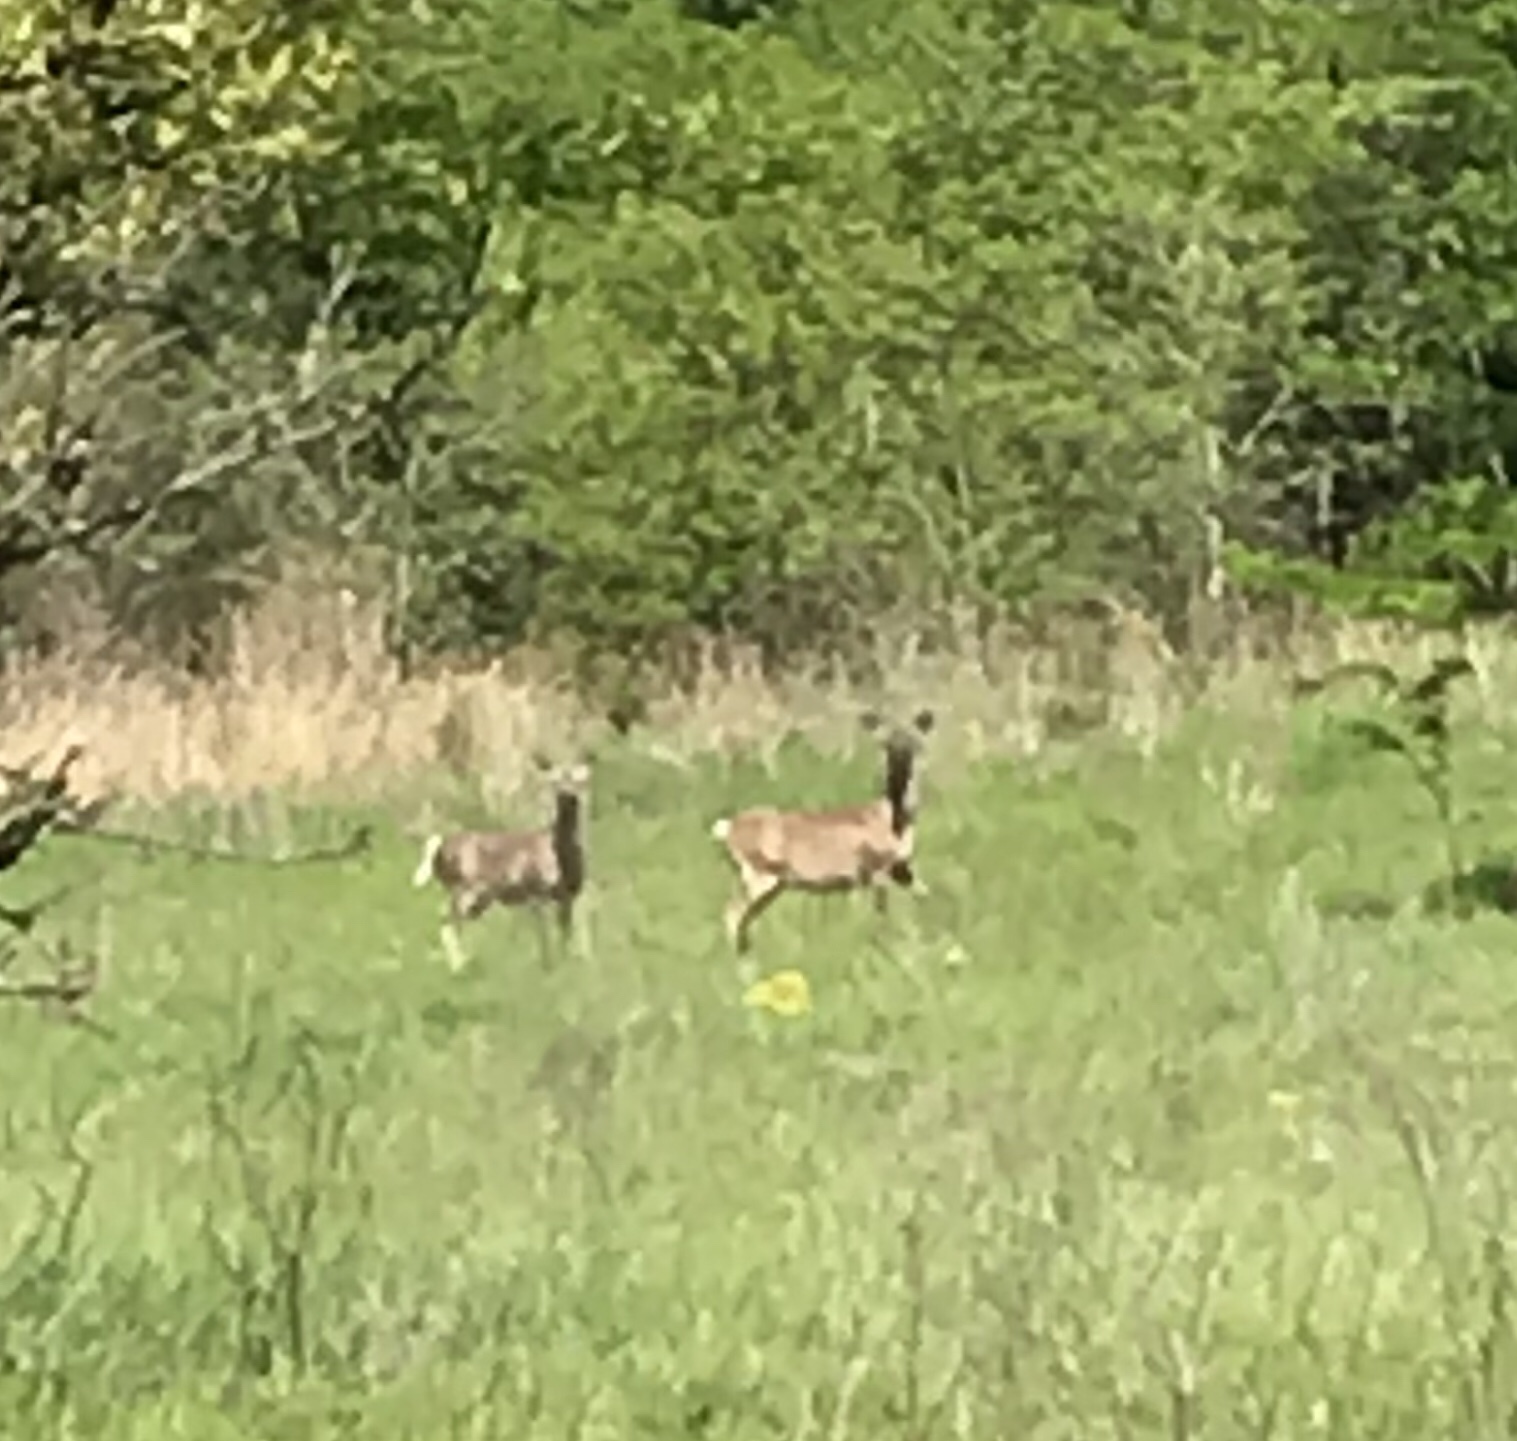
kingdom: Animalia
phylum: Chordata
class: Mammalia
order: Artiodactyla
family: Cervidae
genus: Odocoileus
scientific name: Odocoileus virginianus
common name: White-tailed deer
